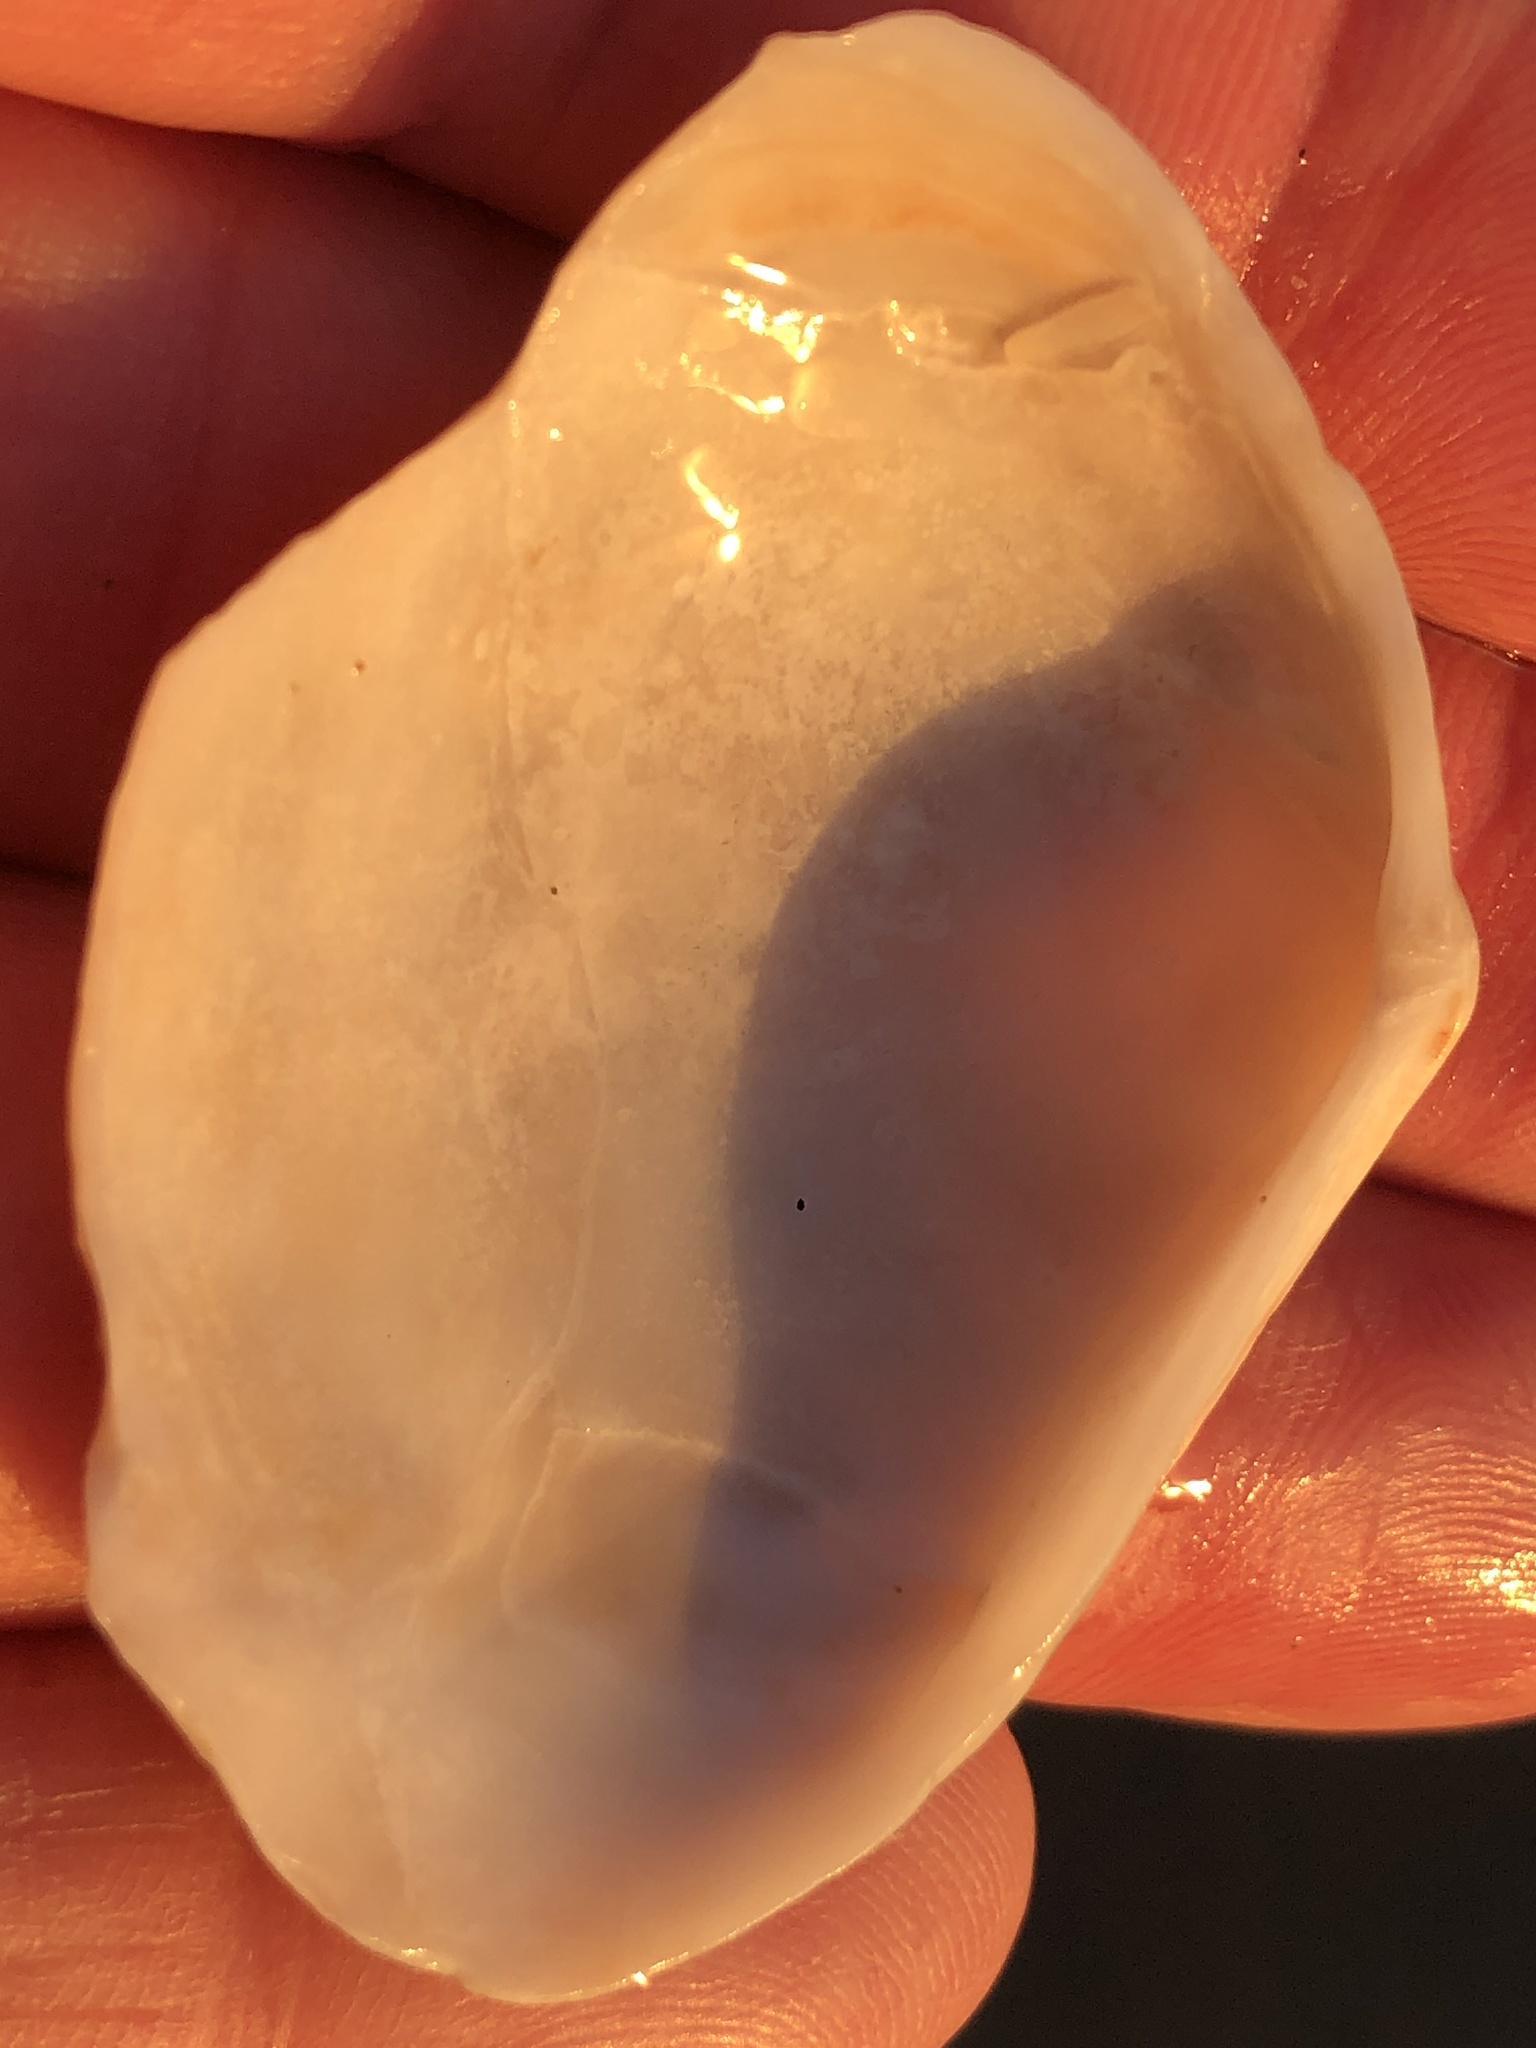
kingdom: Animalia
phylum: Mollusca
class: Bivalvia
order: Cardiida
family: Tellinidae
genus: Macoma
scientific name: Macoma nasuta
